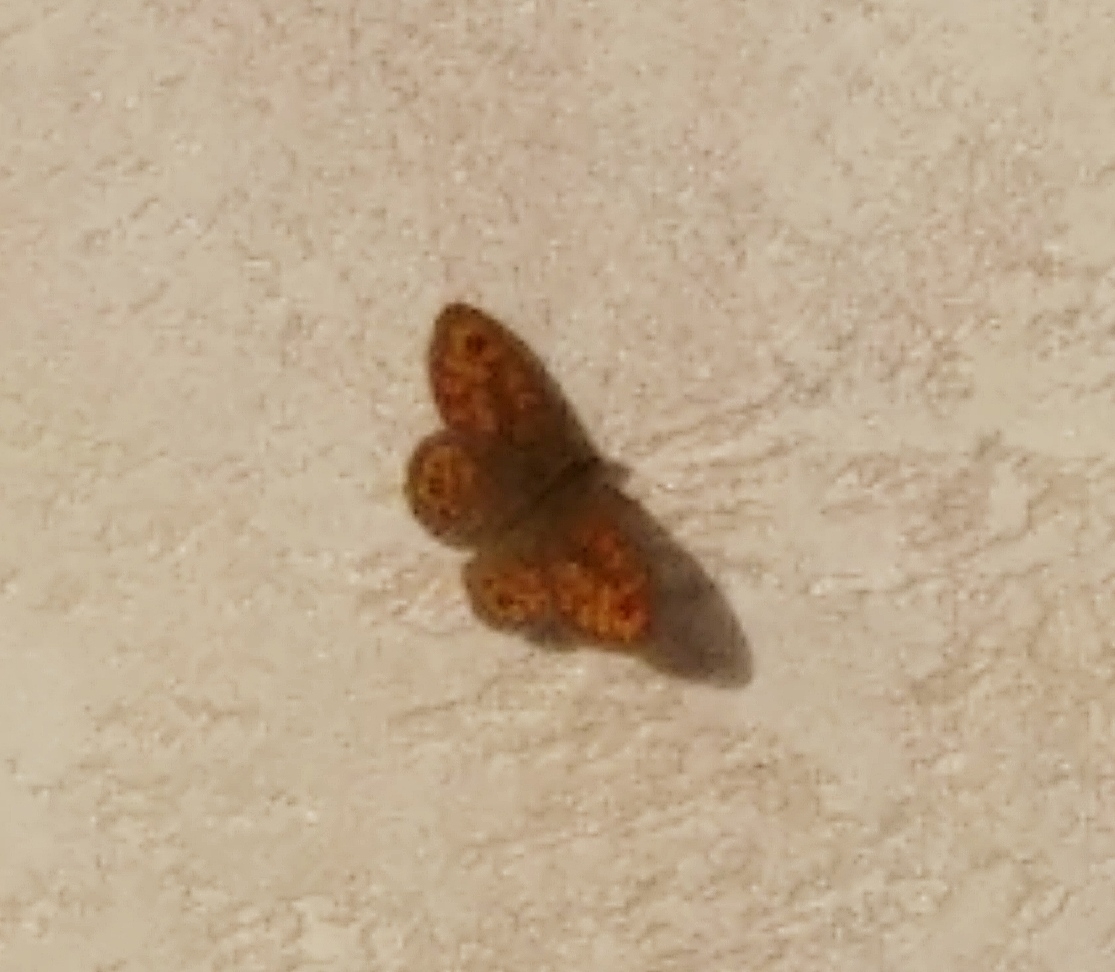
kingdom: Animalia
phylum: Arthropoda
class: Insecta
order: Lepidoptera
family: Nymphalidae
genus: Pararge
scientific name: Pararge Lasiommata megera
